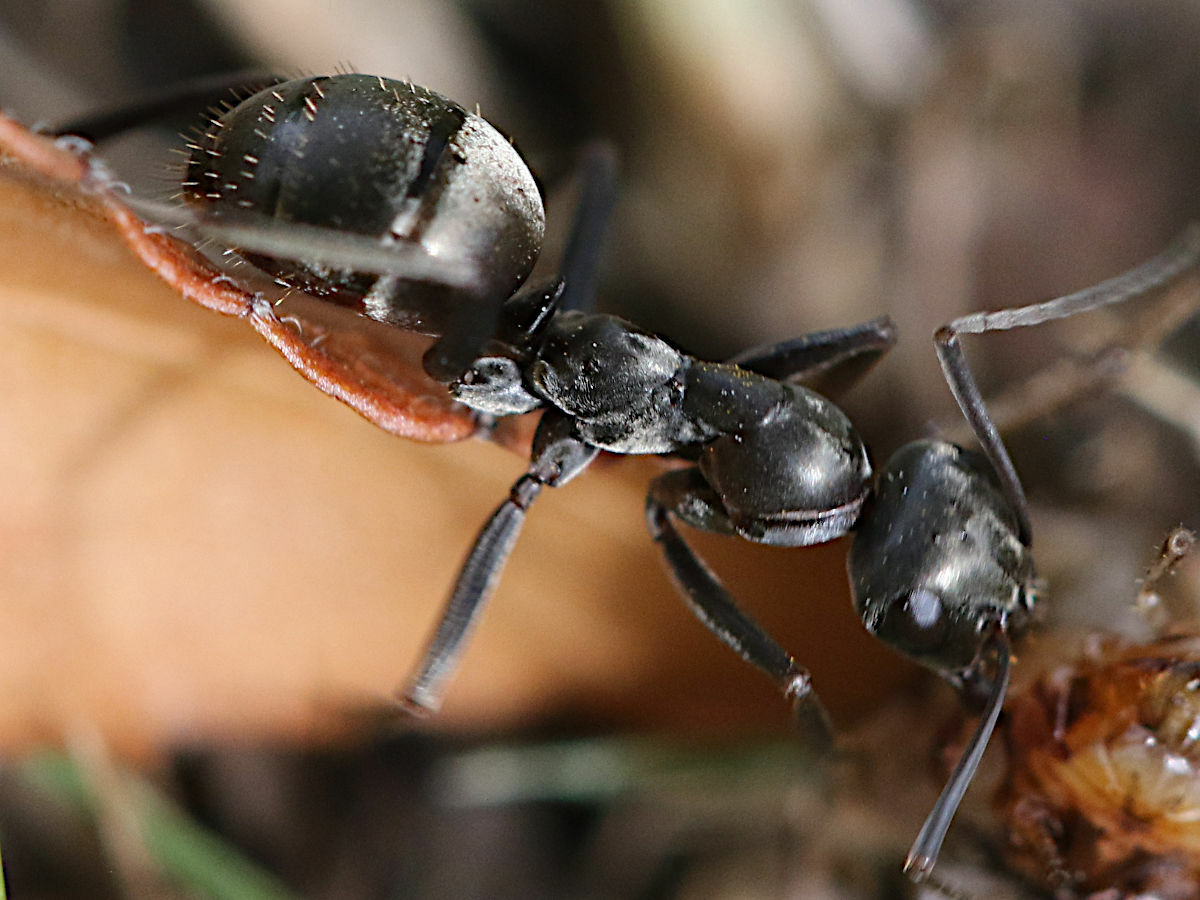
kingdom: Animalia
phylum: Arthropoda
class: Insecta
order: Hymenoptera
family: Formicidae
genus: Formica
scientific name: Formica subsericea
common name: Silky field ant
